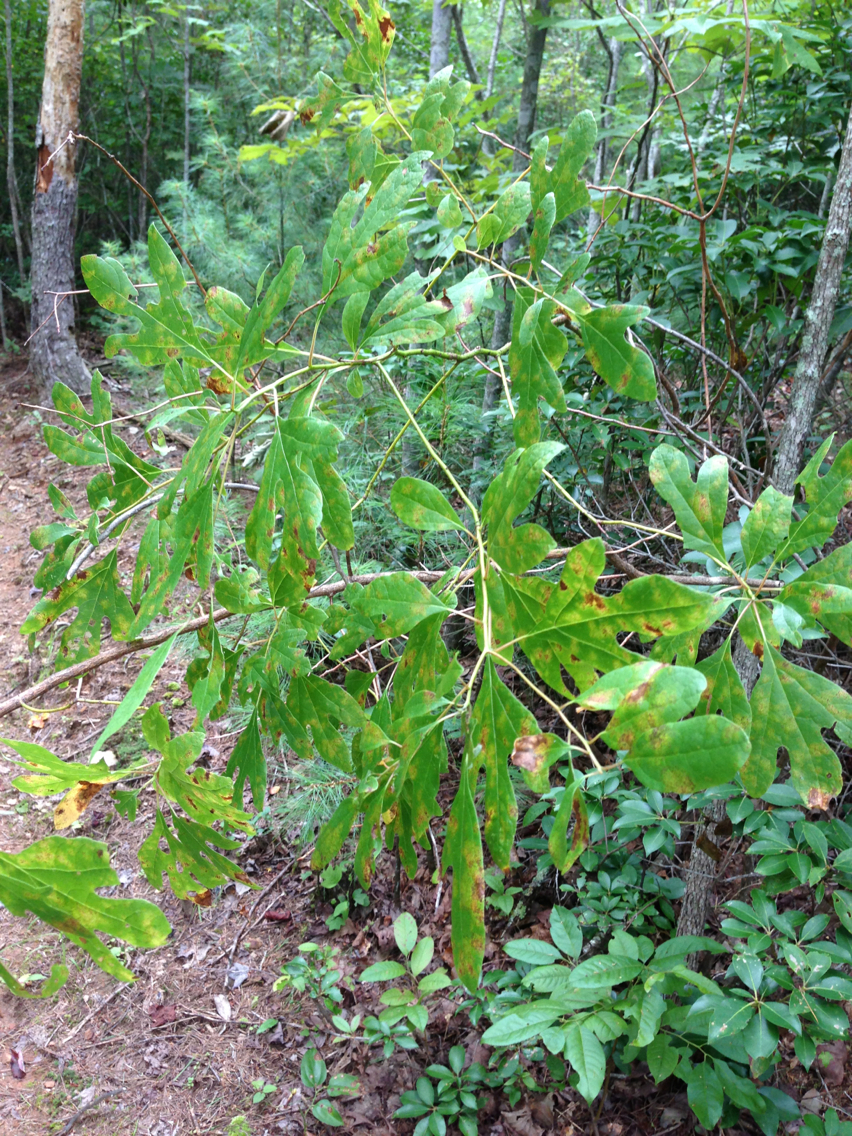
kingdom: Plantae
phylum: Tracheophyta
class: Magnoliopsida
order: Laurales
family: Lauraceae
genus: Sassafras
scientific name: Sassafras albidum
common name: Sassafras
